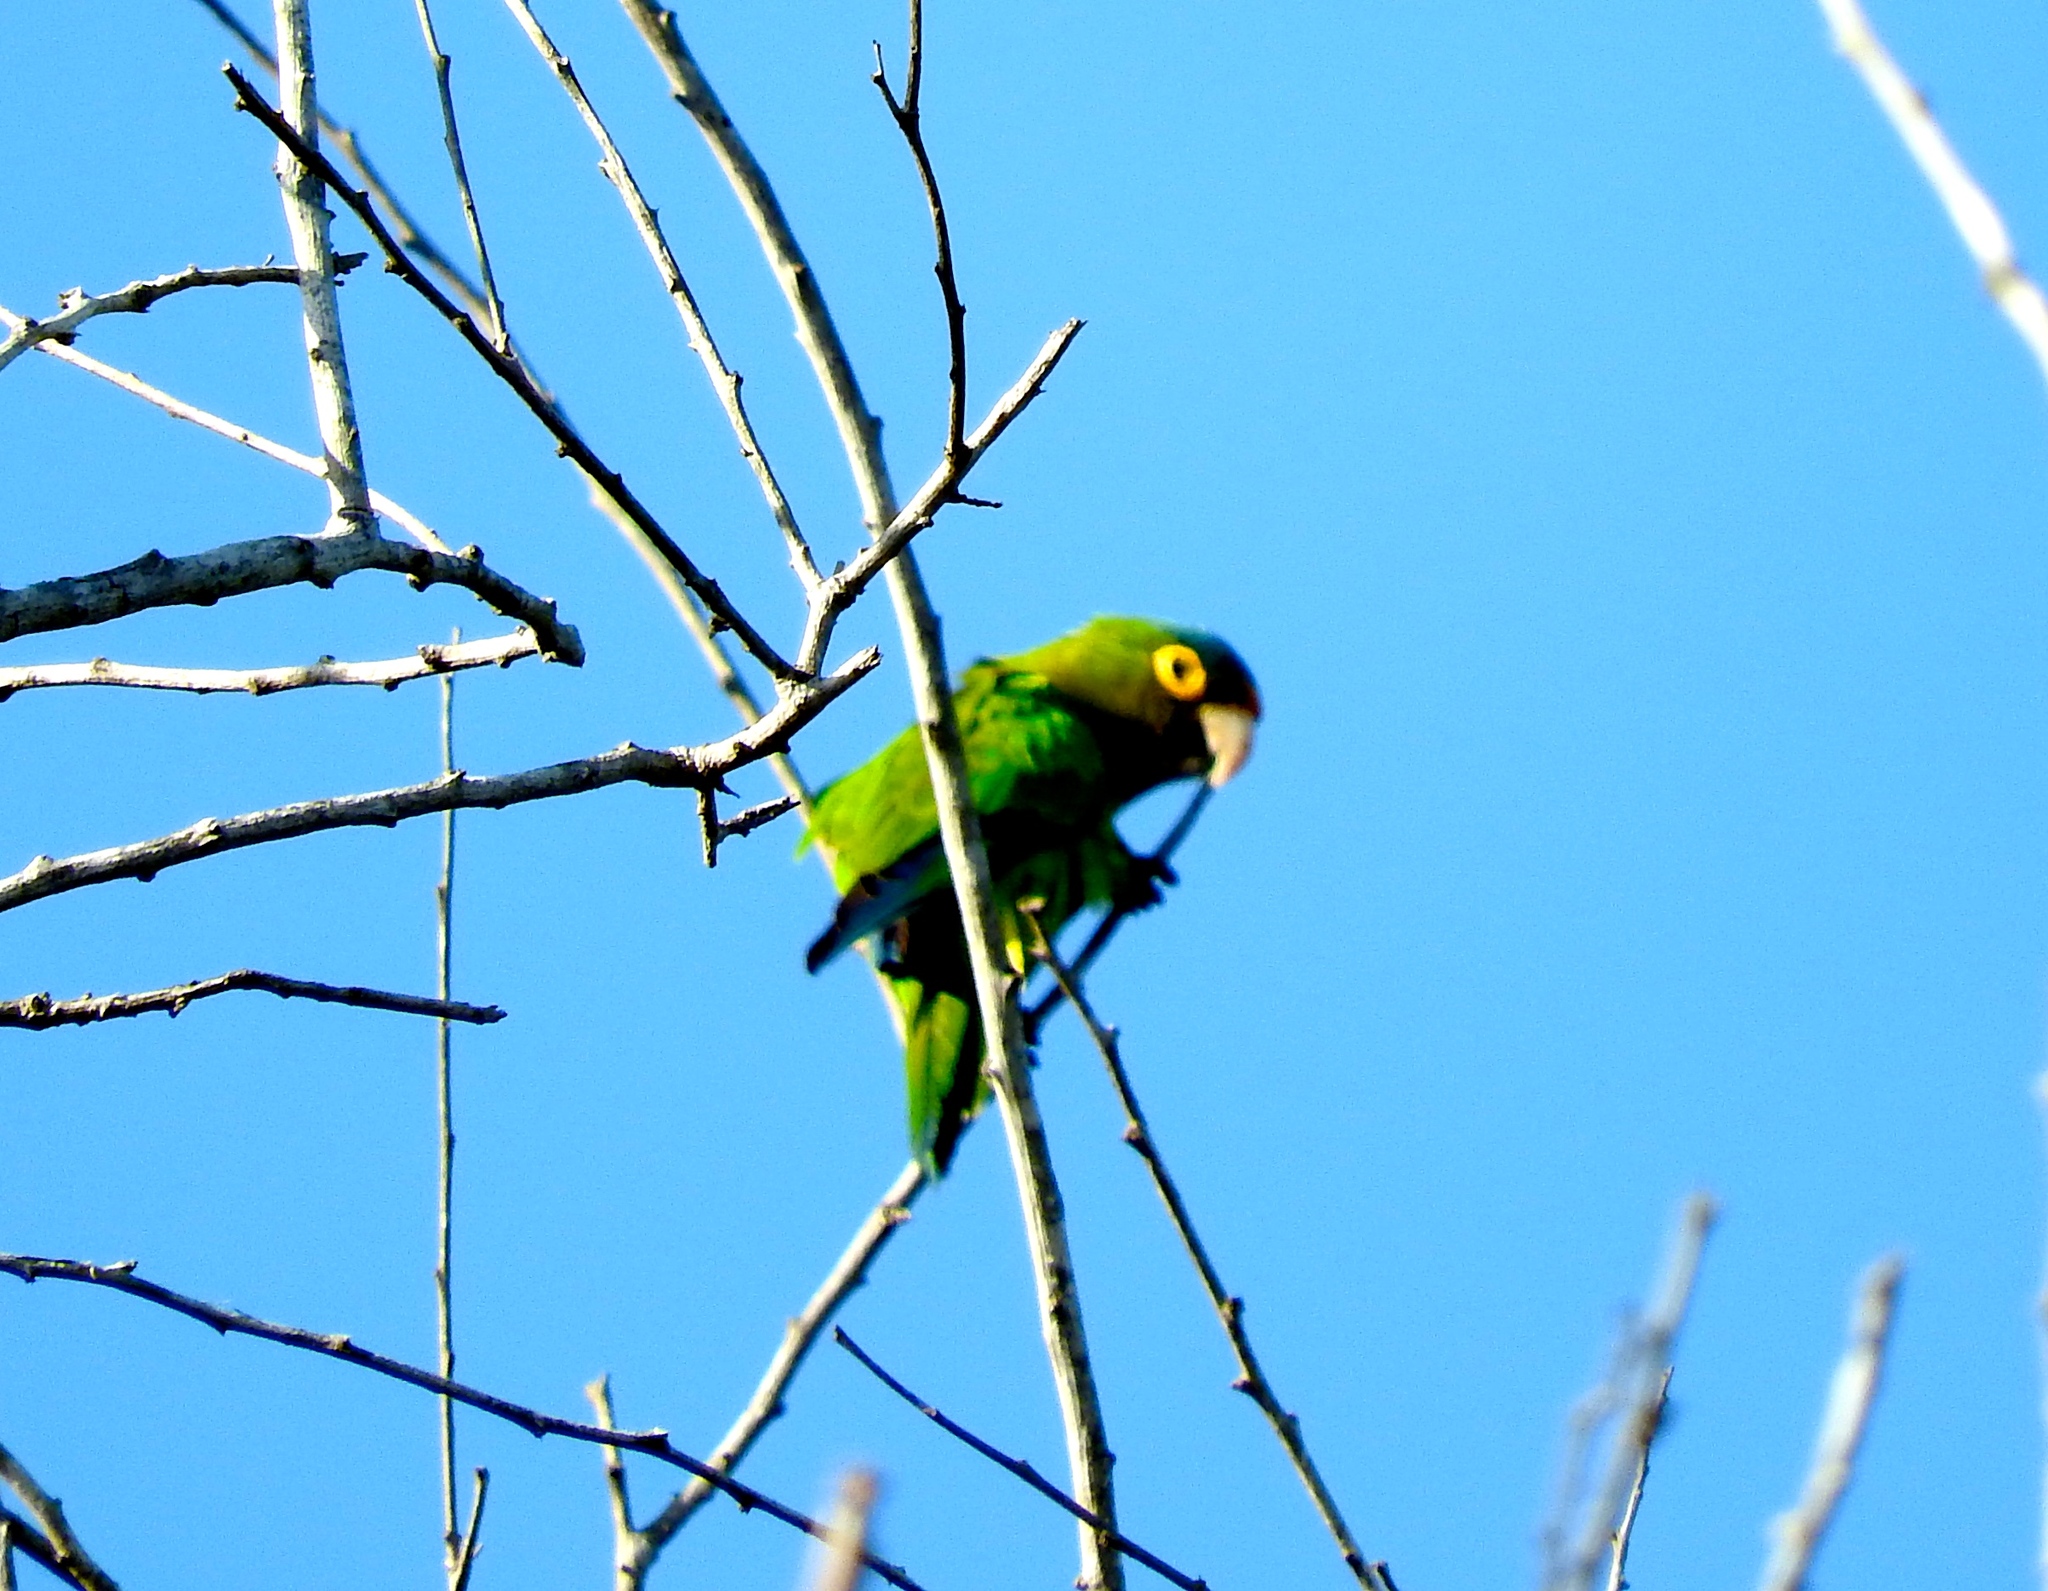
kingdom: Animalia
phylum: Chordata
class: Aves
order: Psittaciformes
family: Psittacidae
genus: Aratinga
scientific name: Aratinga canicularis
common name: Orange-fronted parakeet
